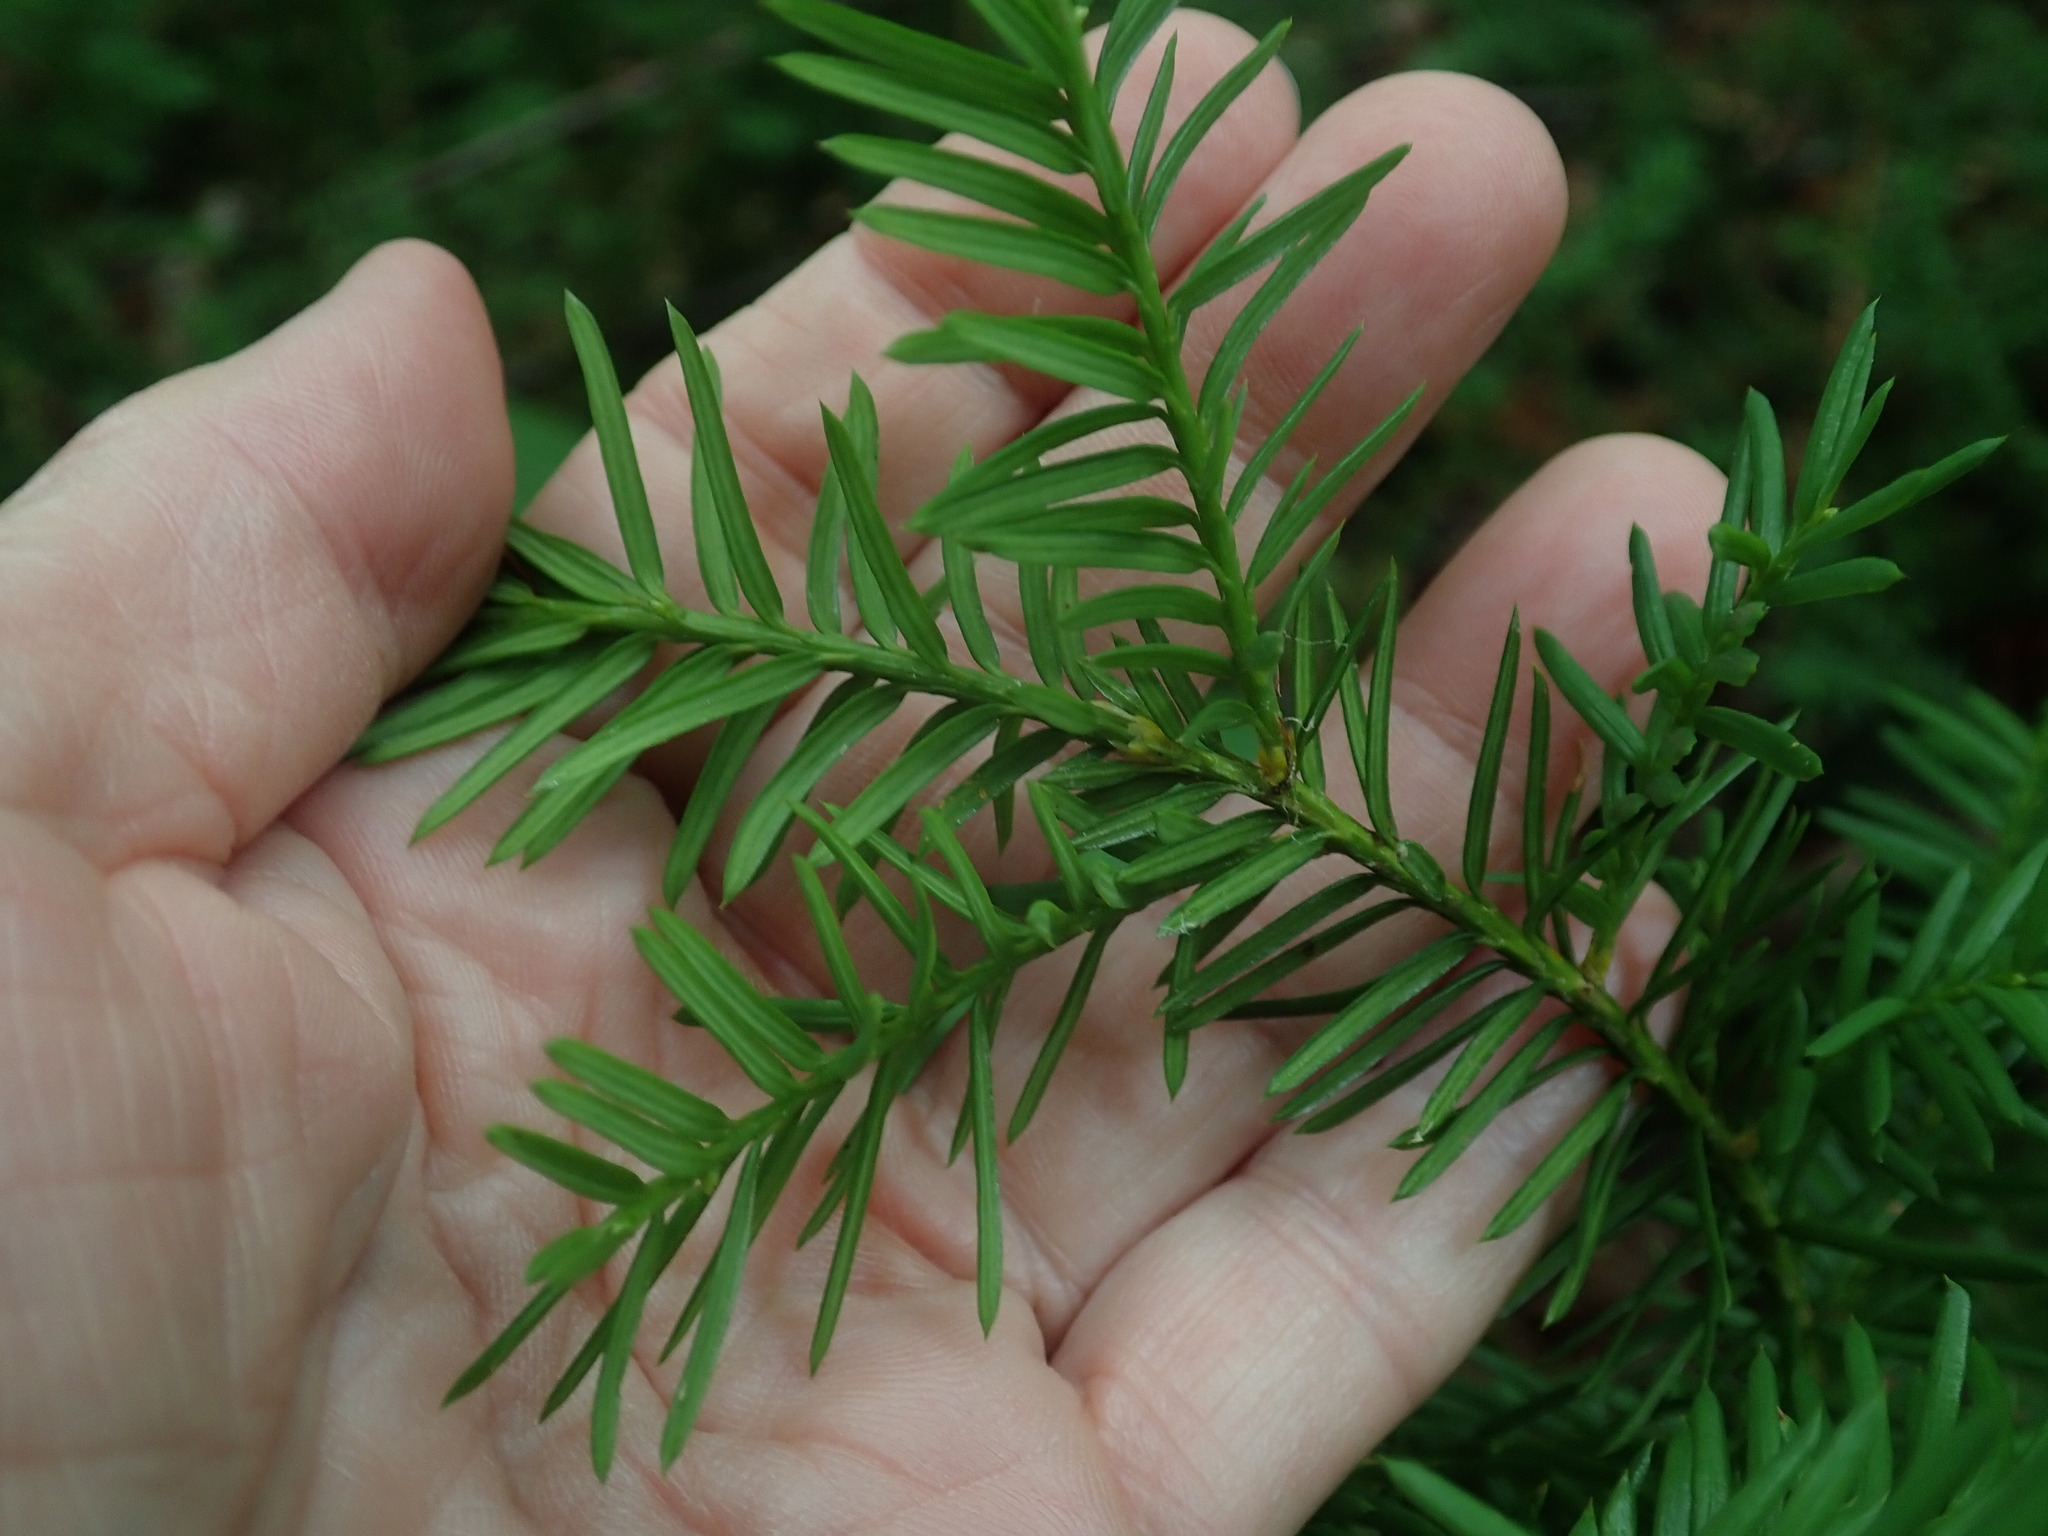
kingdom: Plantae
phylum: Tracheophyta
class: Pinopsida
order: Pinales
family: Taxaceae
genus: Taxus
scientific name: Taxus canadensis
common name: American yew
